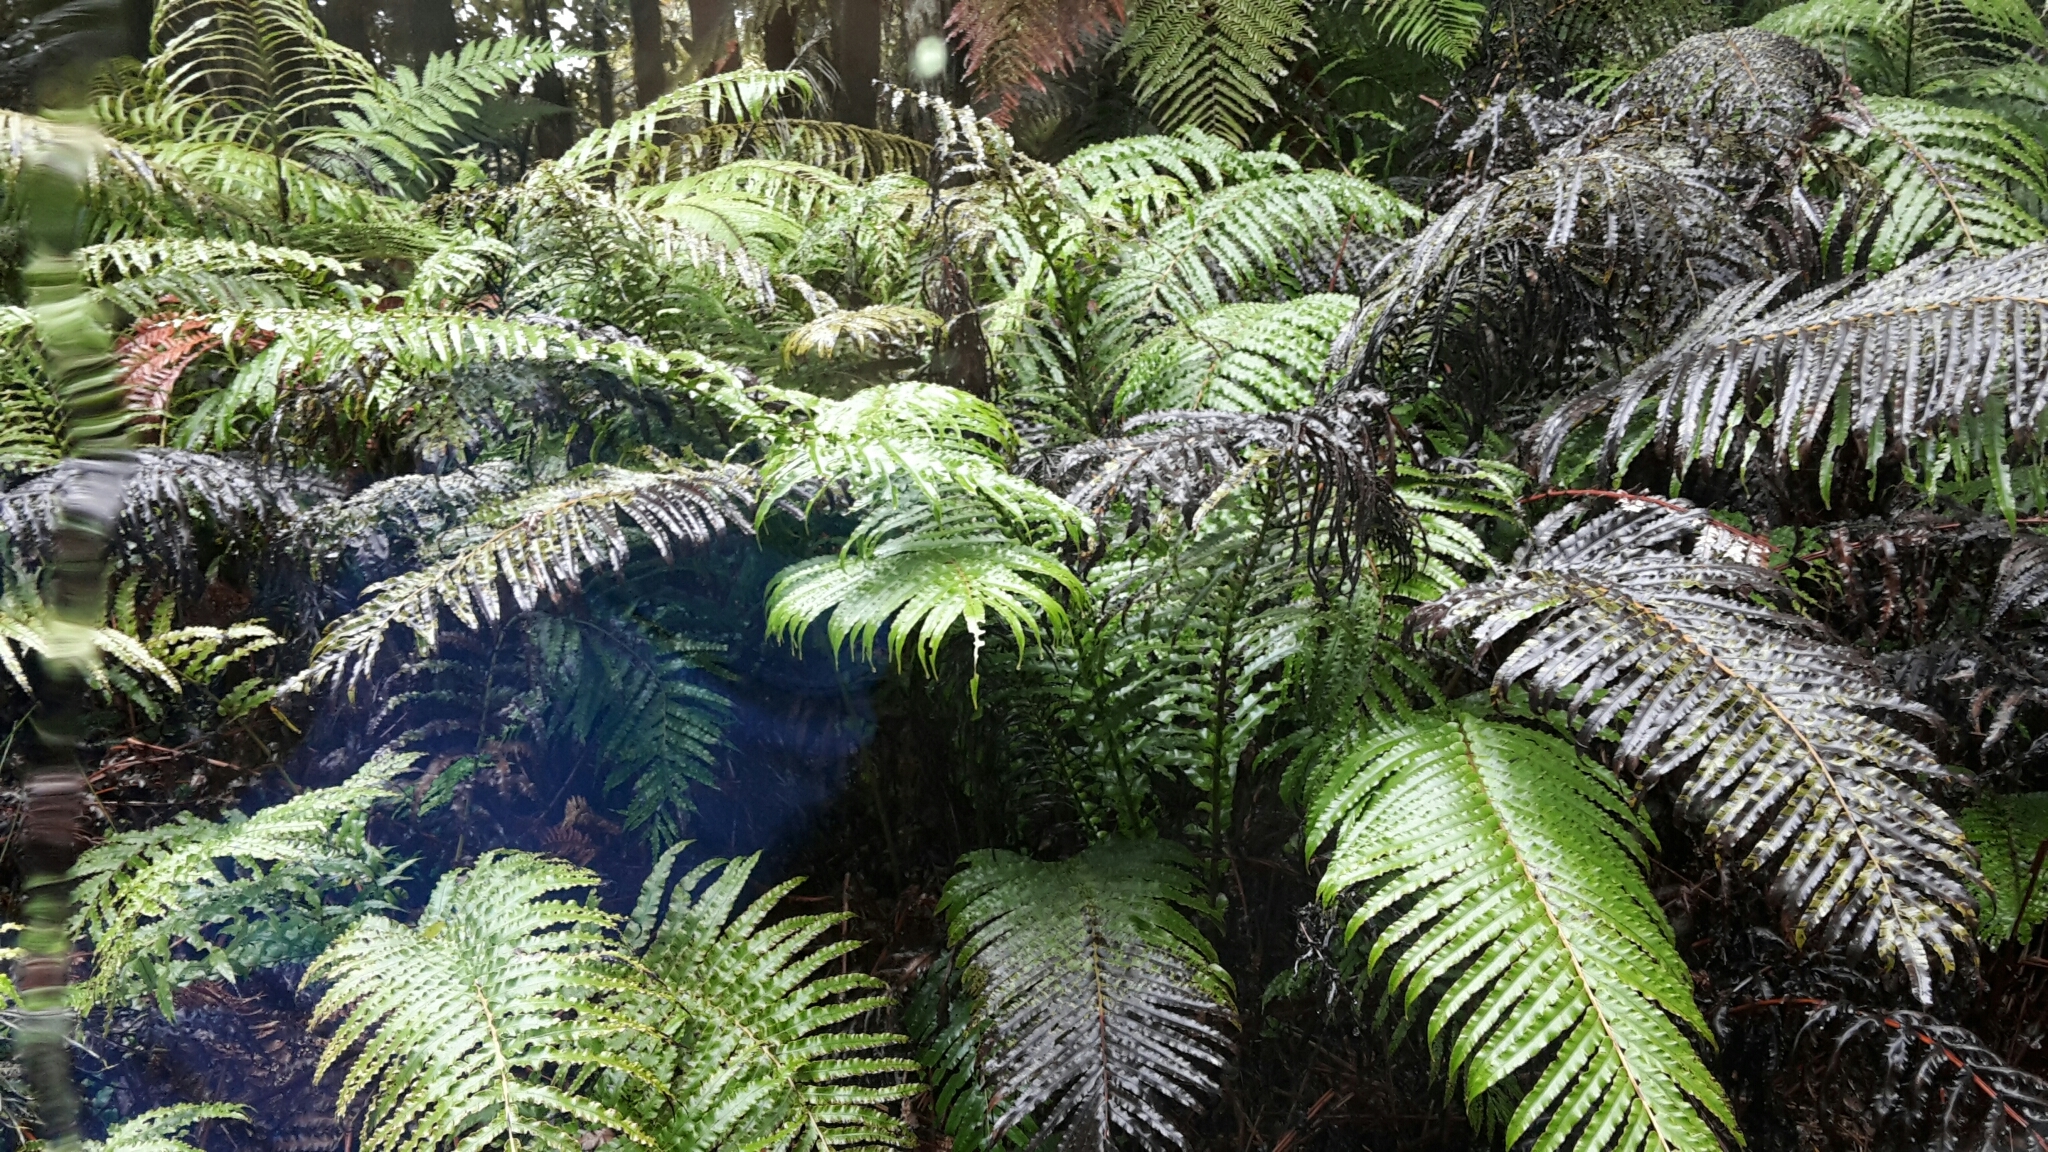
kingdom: Plantae
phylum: Tracheophyta
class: Polypodiopsida
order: Polypodiales
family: Blechnaceae
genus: Parablechnum
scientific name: Parablechnum novae-zelandiae
